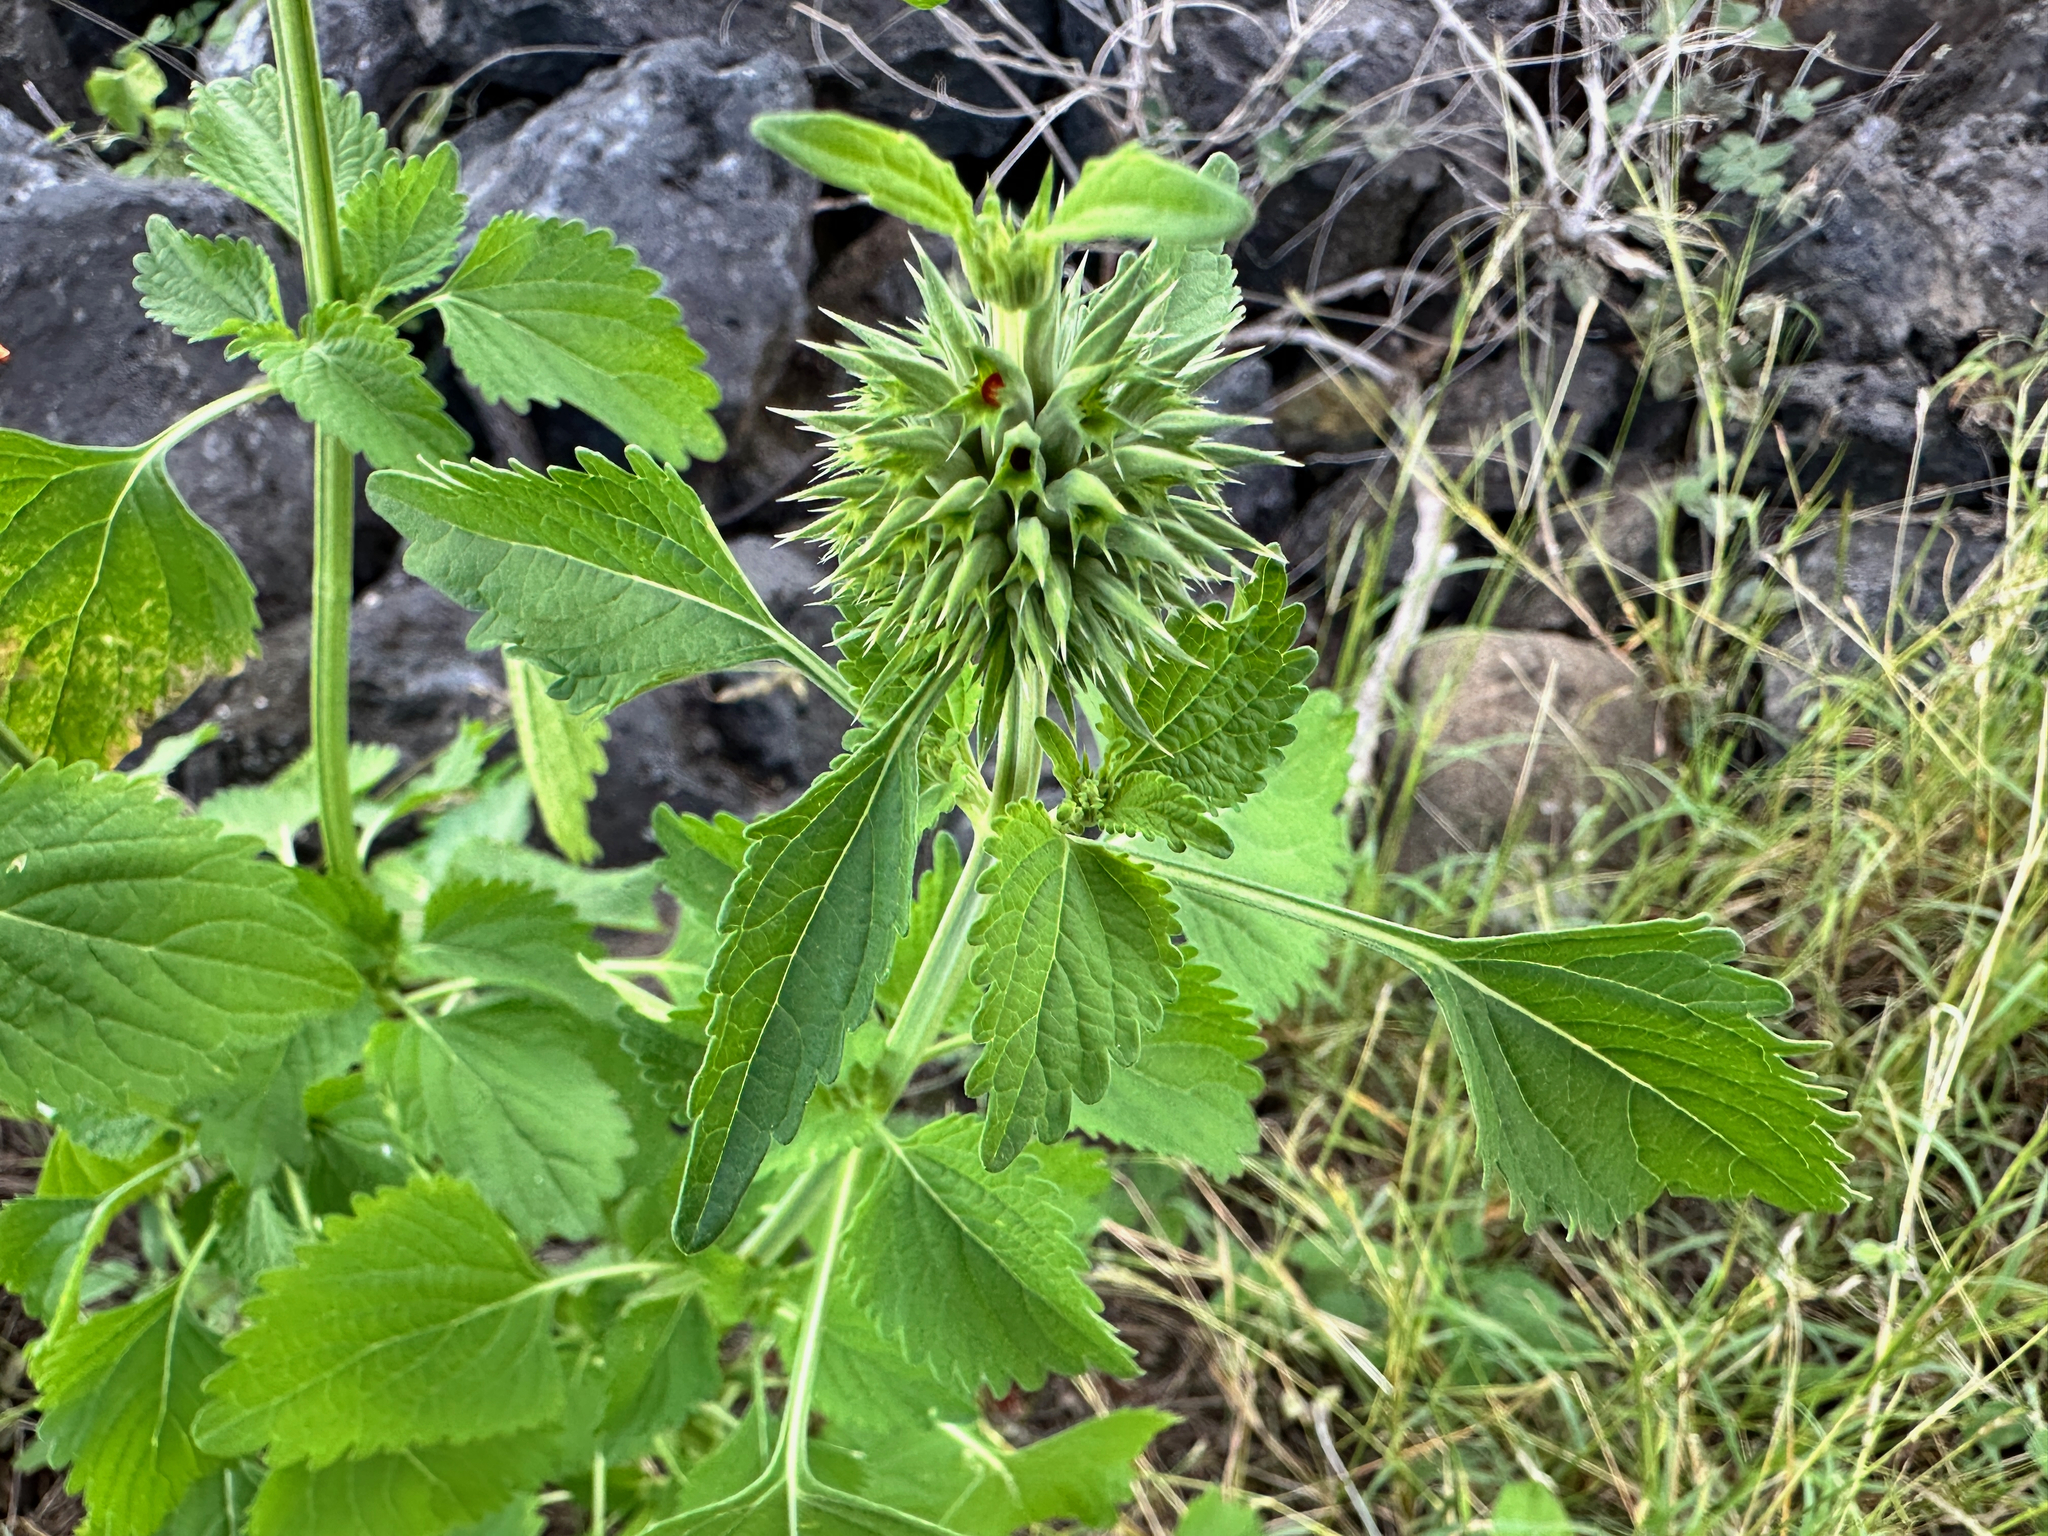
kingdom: Plantae
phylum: Tracheophyta
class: Magnoliopsida
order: Lamiales
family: Lamiaceae
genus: Leonotis
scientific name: Leonotis nepetifolia
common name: Christmas candlestick
